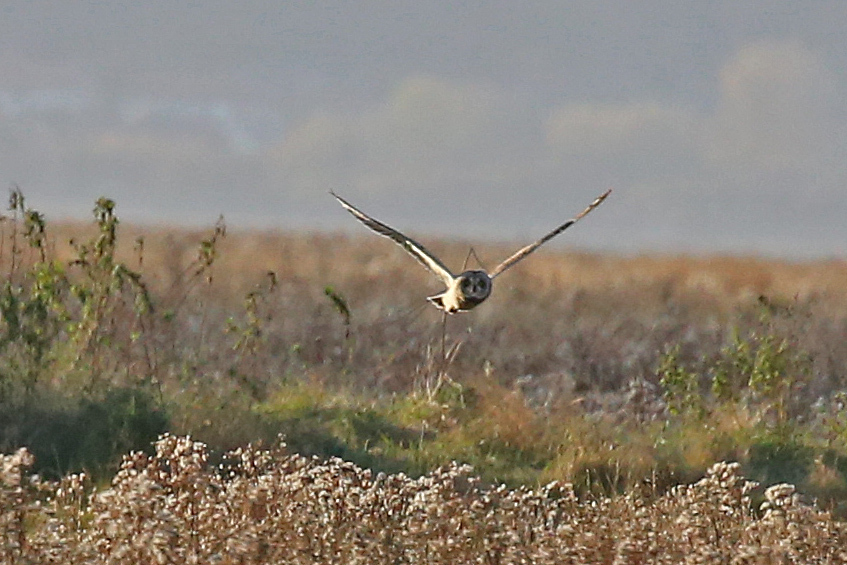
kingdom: Animalia
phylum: Chordata
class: Aves
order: Strigiformes
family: Strigidae
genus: Asio
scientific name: Asio flammeus
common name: Short-eared owl
